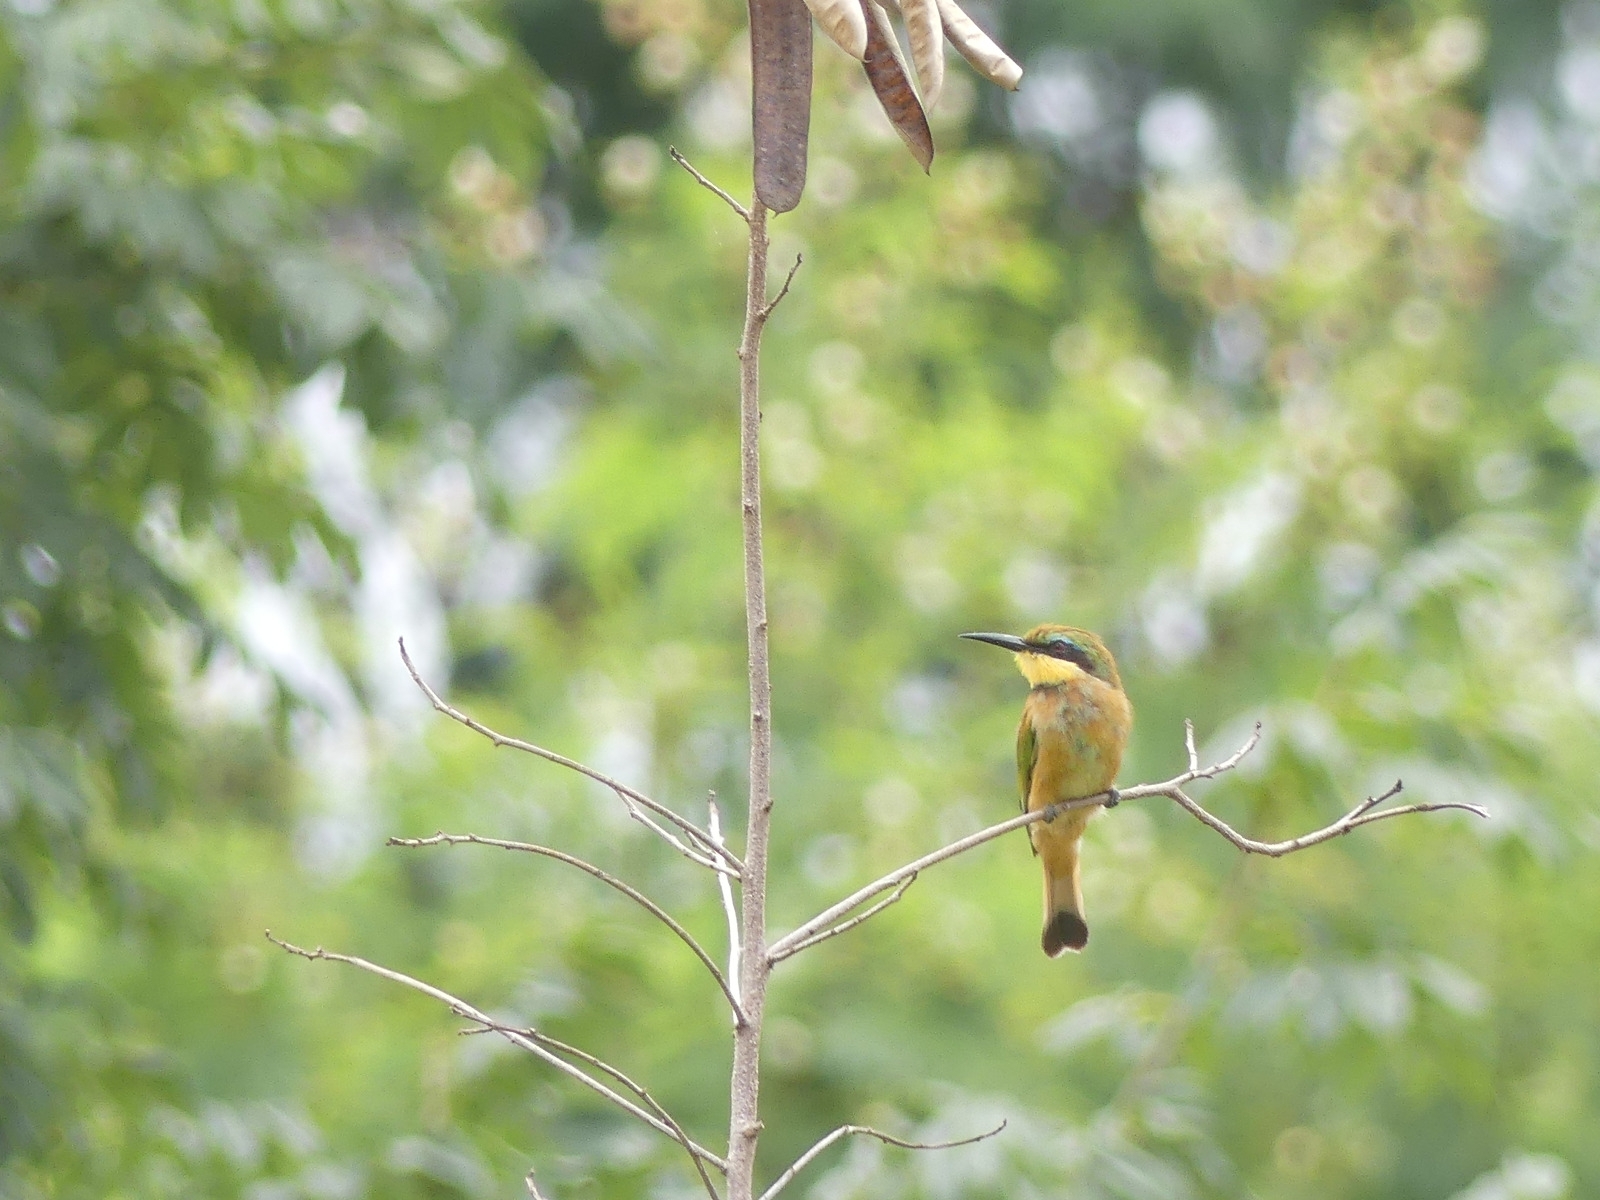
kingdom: Animalia
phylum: Chordata
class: Aves
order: Coraciiformes
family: Meropidae
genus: Merops
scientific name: Merops pusillus
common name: Little bee-eater
